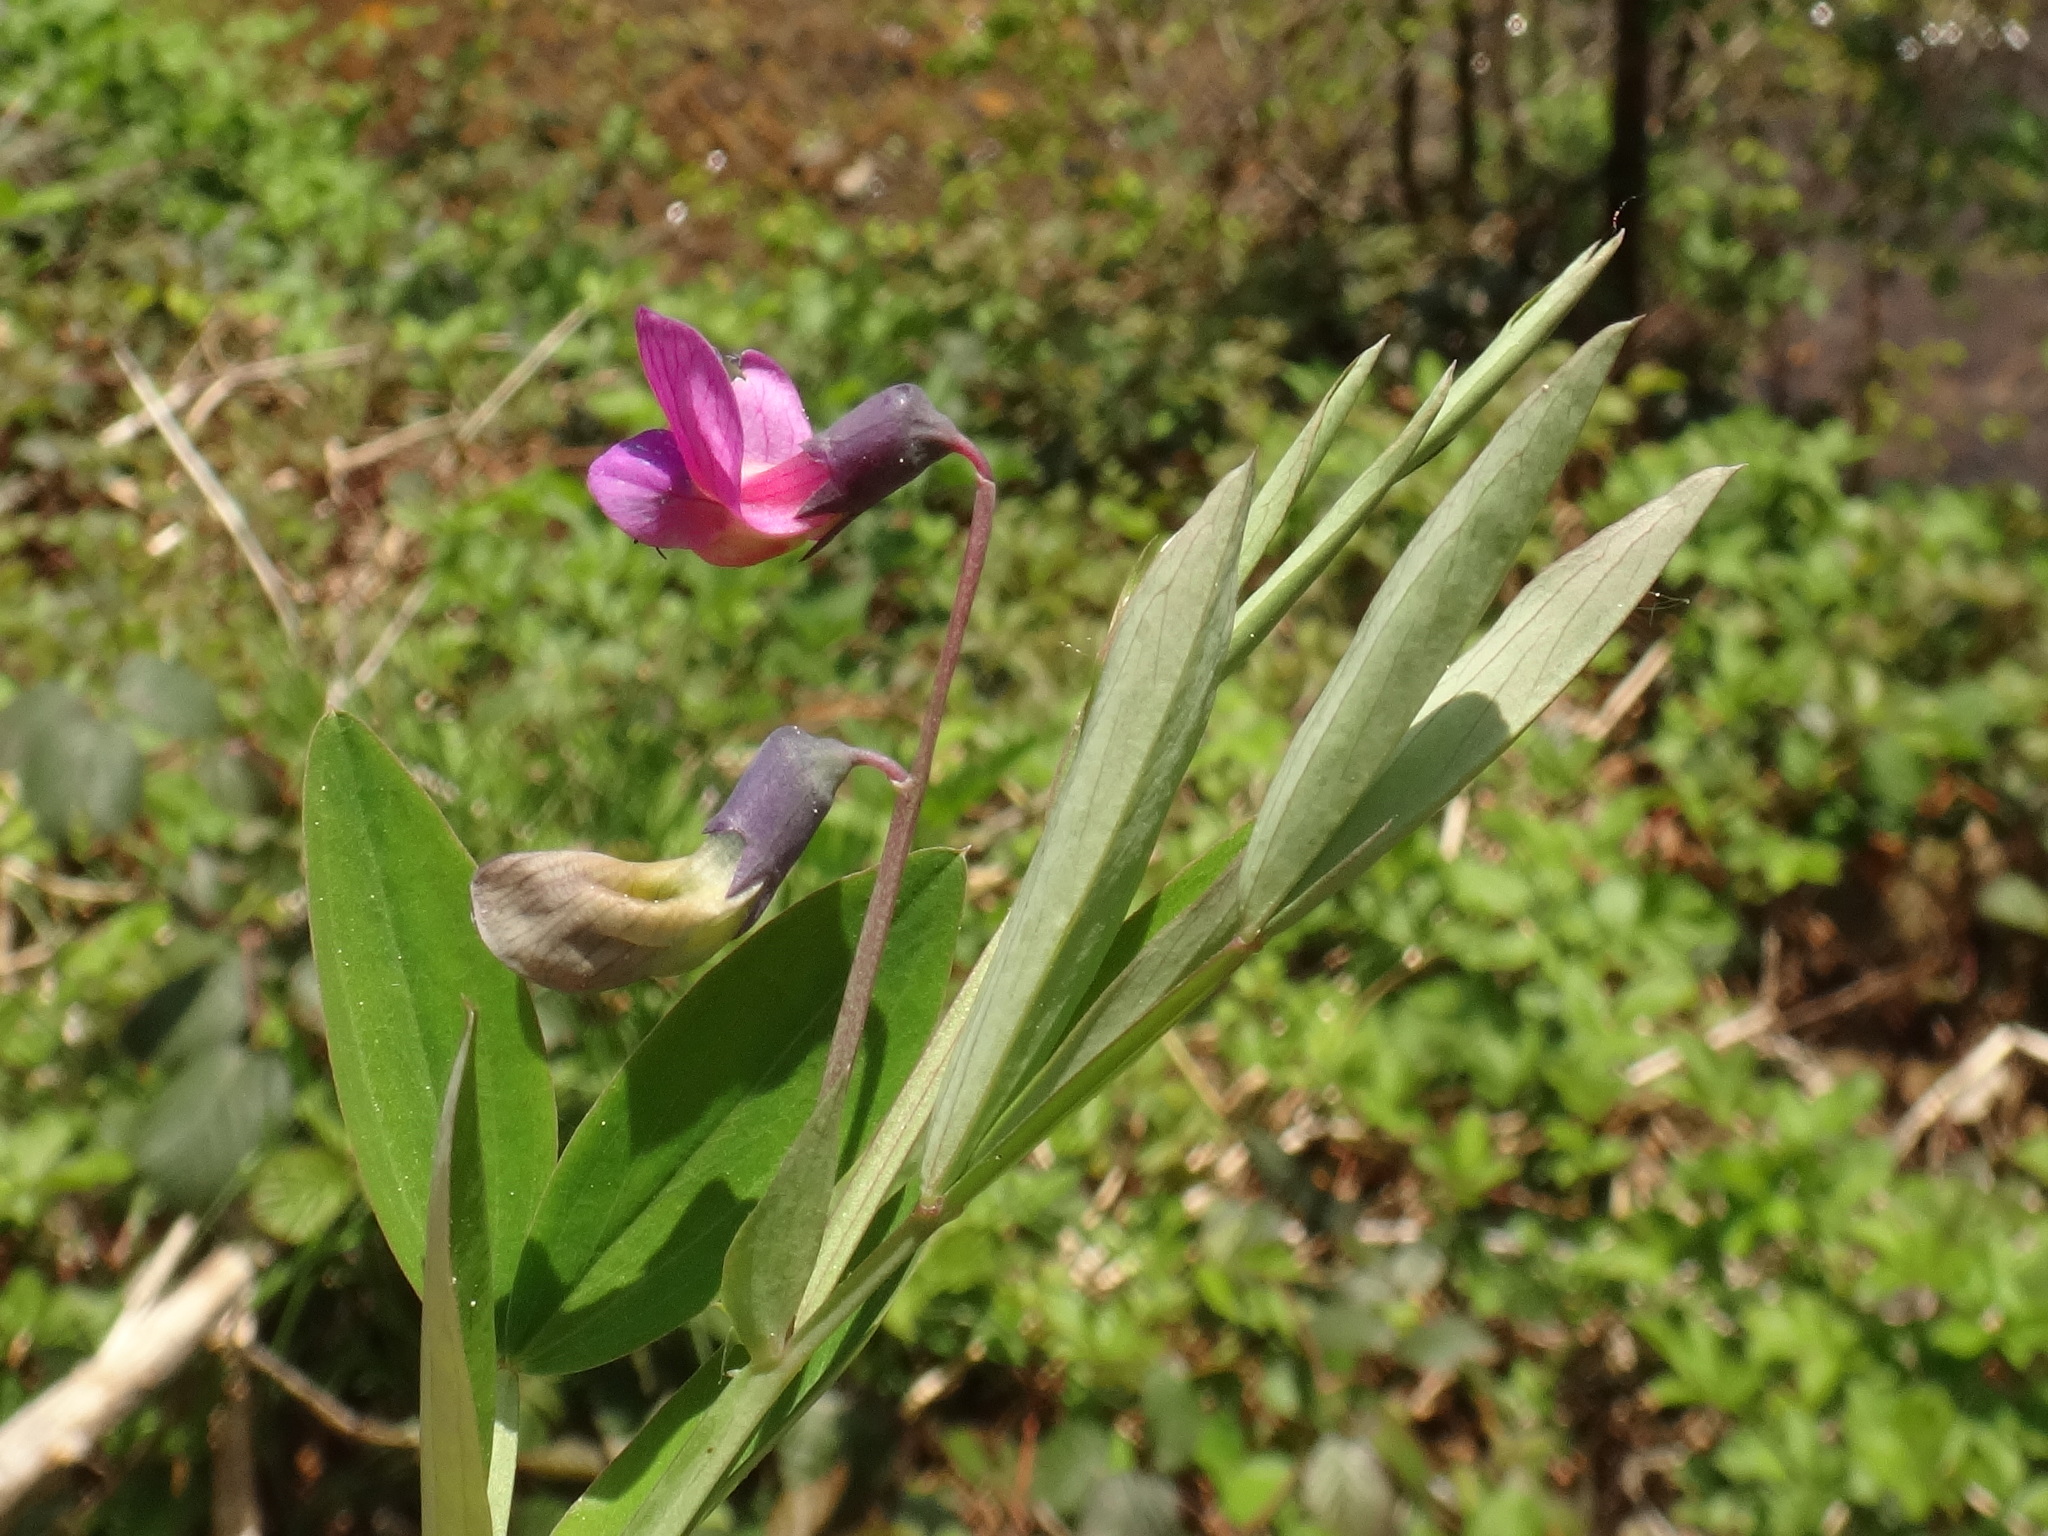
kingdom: Plantae
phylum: Tracheophyta
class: Magnoliopsida
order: Fabales
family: Fabaceae
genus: Lathyrus
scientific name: Lathyrus linifolius
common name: Bitter-vetch
